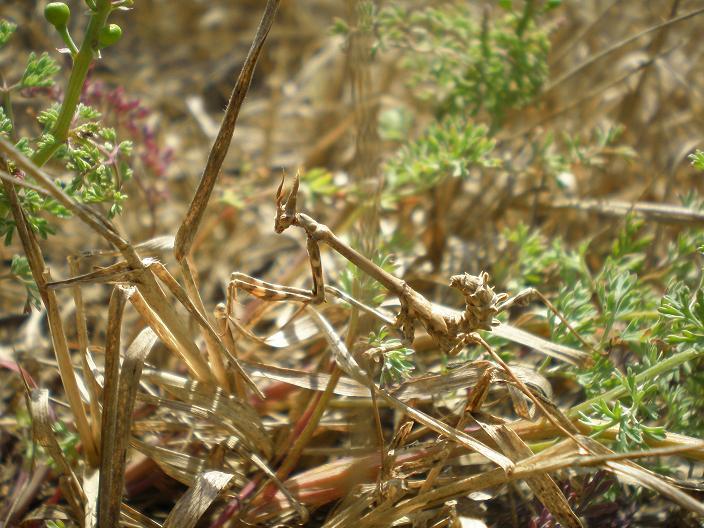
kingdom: Animalia
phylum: Arthropoda
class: Insecta
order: Mantodea
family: Empusidae
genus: Empusa
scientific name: Empusa pennata
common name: Conehead mantis
